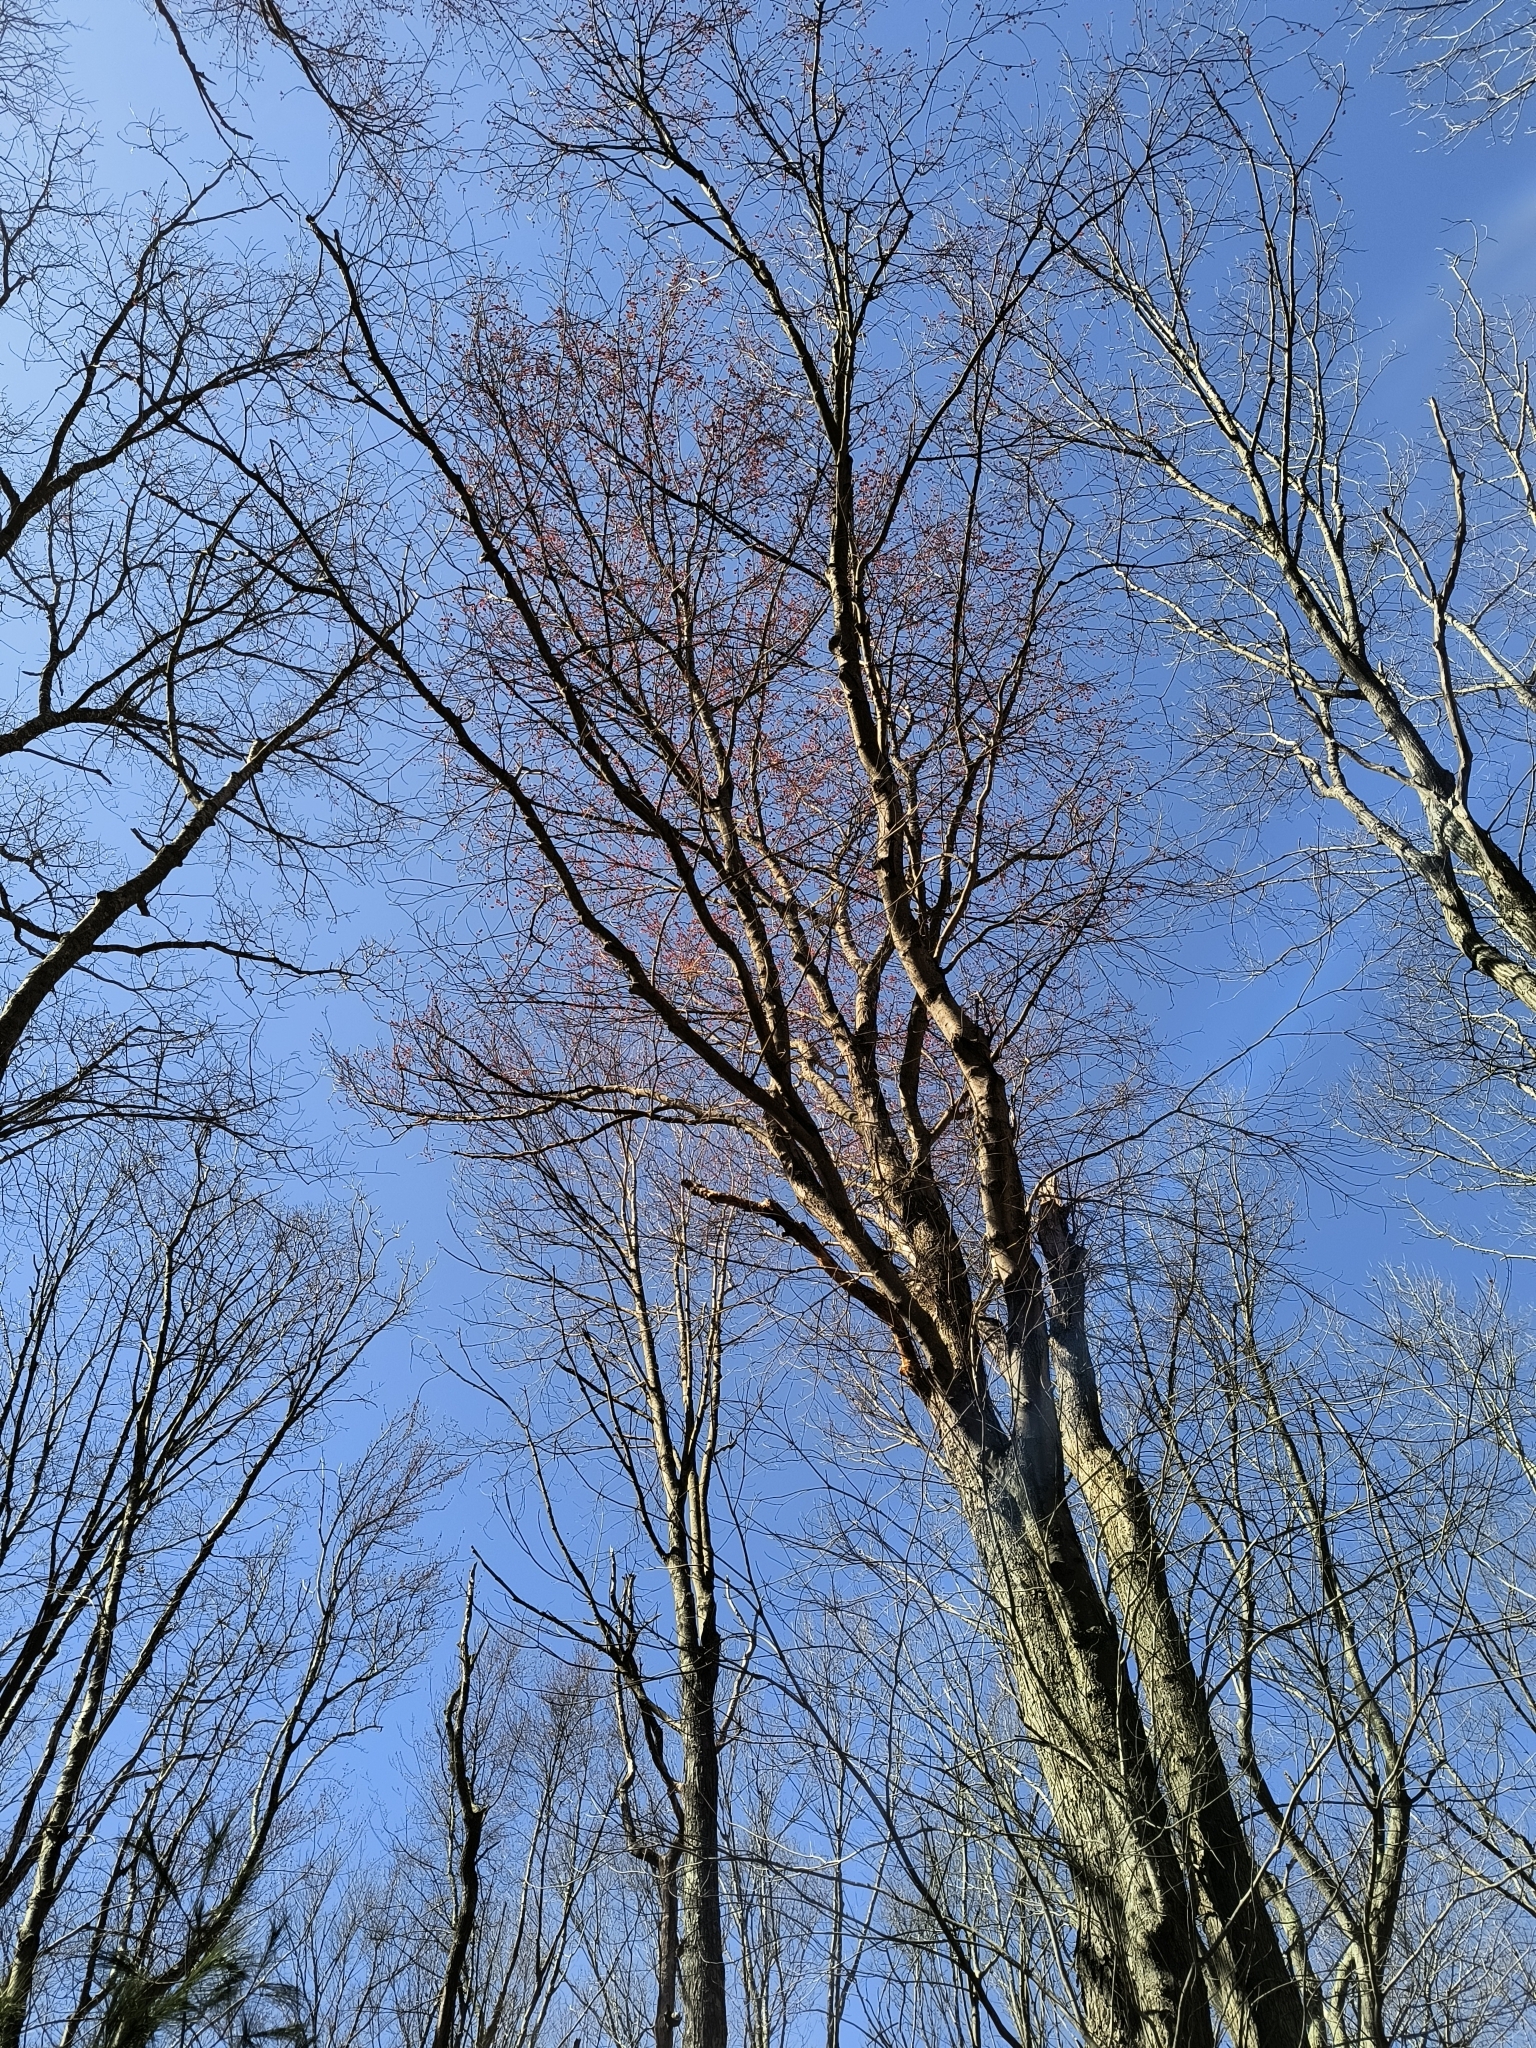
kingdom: Plantae
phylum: Tracheophyta
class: Magnoliopsida
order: Sapindales
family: Sapindaceae
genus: Acer
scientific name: Acer rubrum
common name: Red maple
